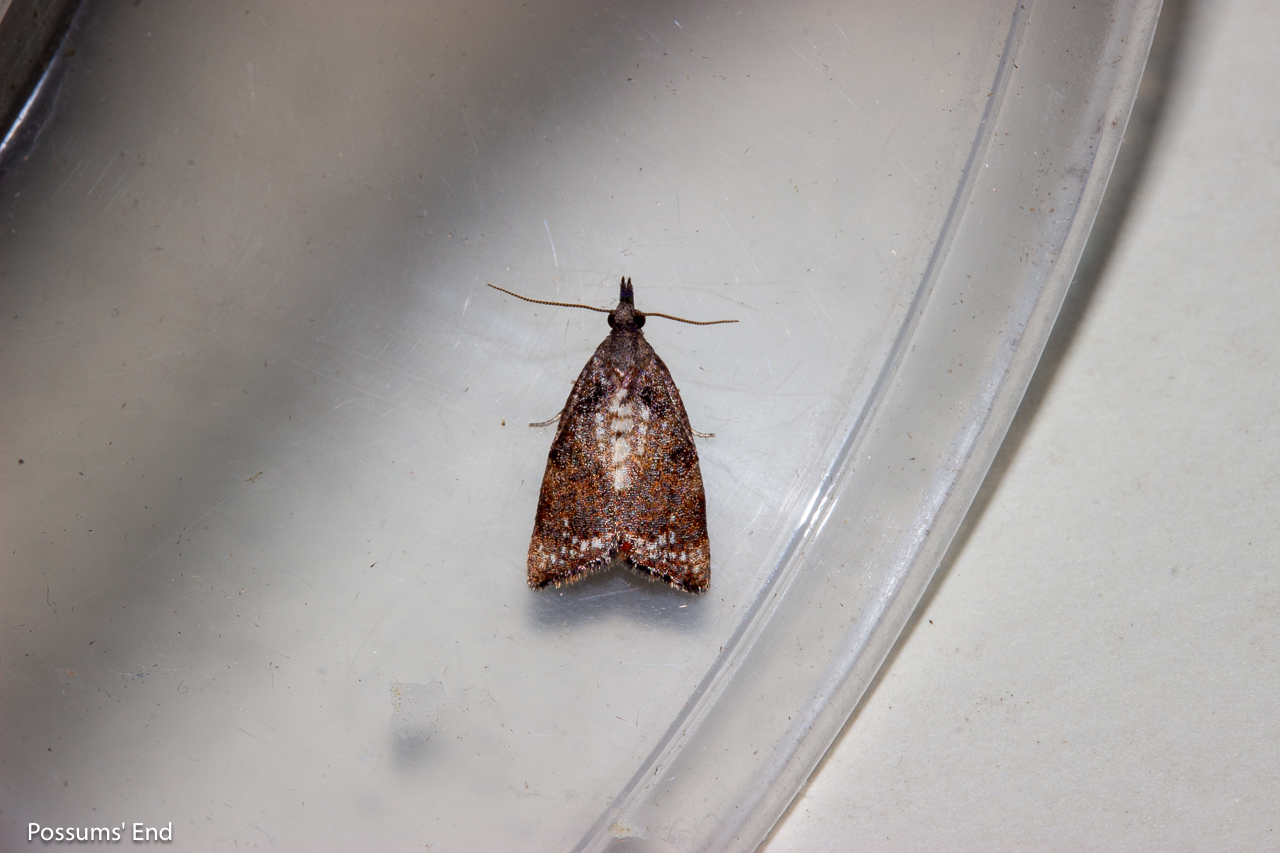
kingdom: Animalia
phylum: Arthropoda
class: Insecta
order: Lepidoptera
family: Tortricidae
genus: Catamacta
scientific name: Catamacta gavisana
